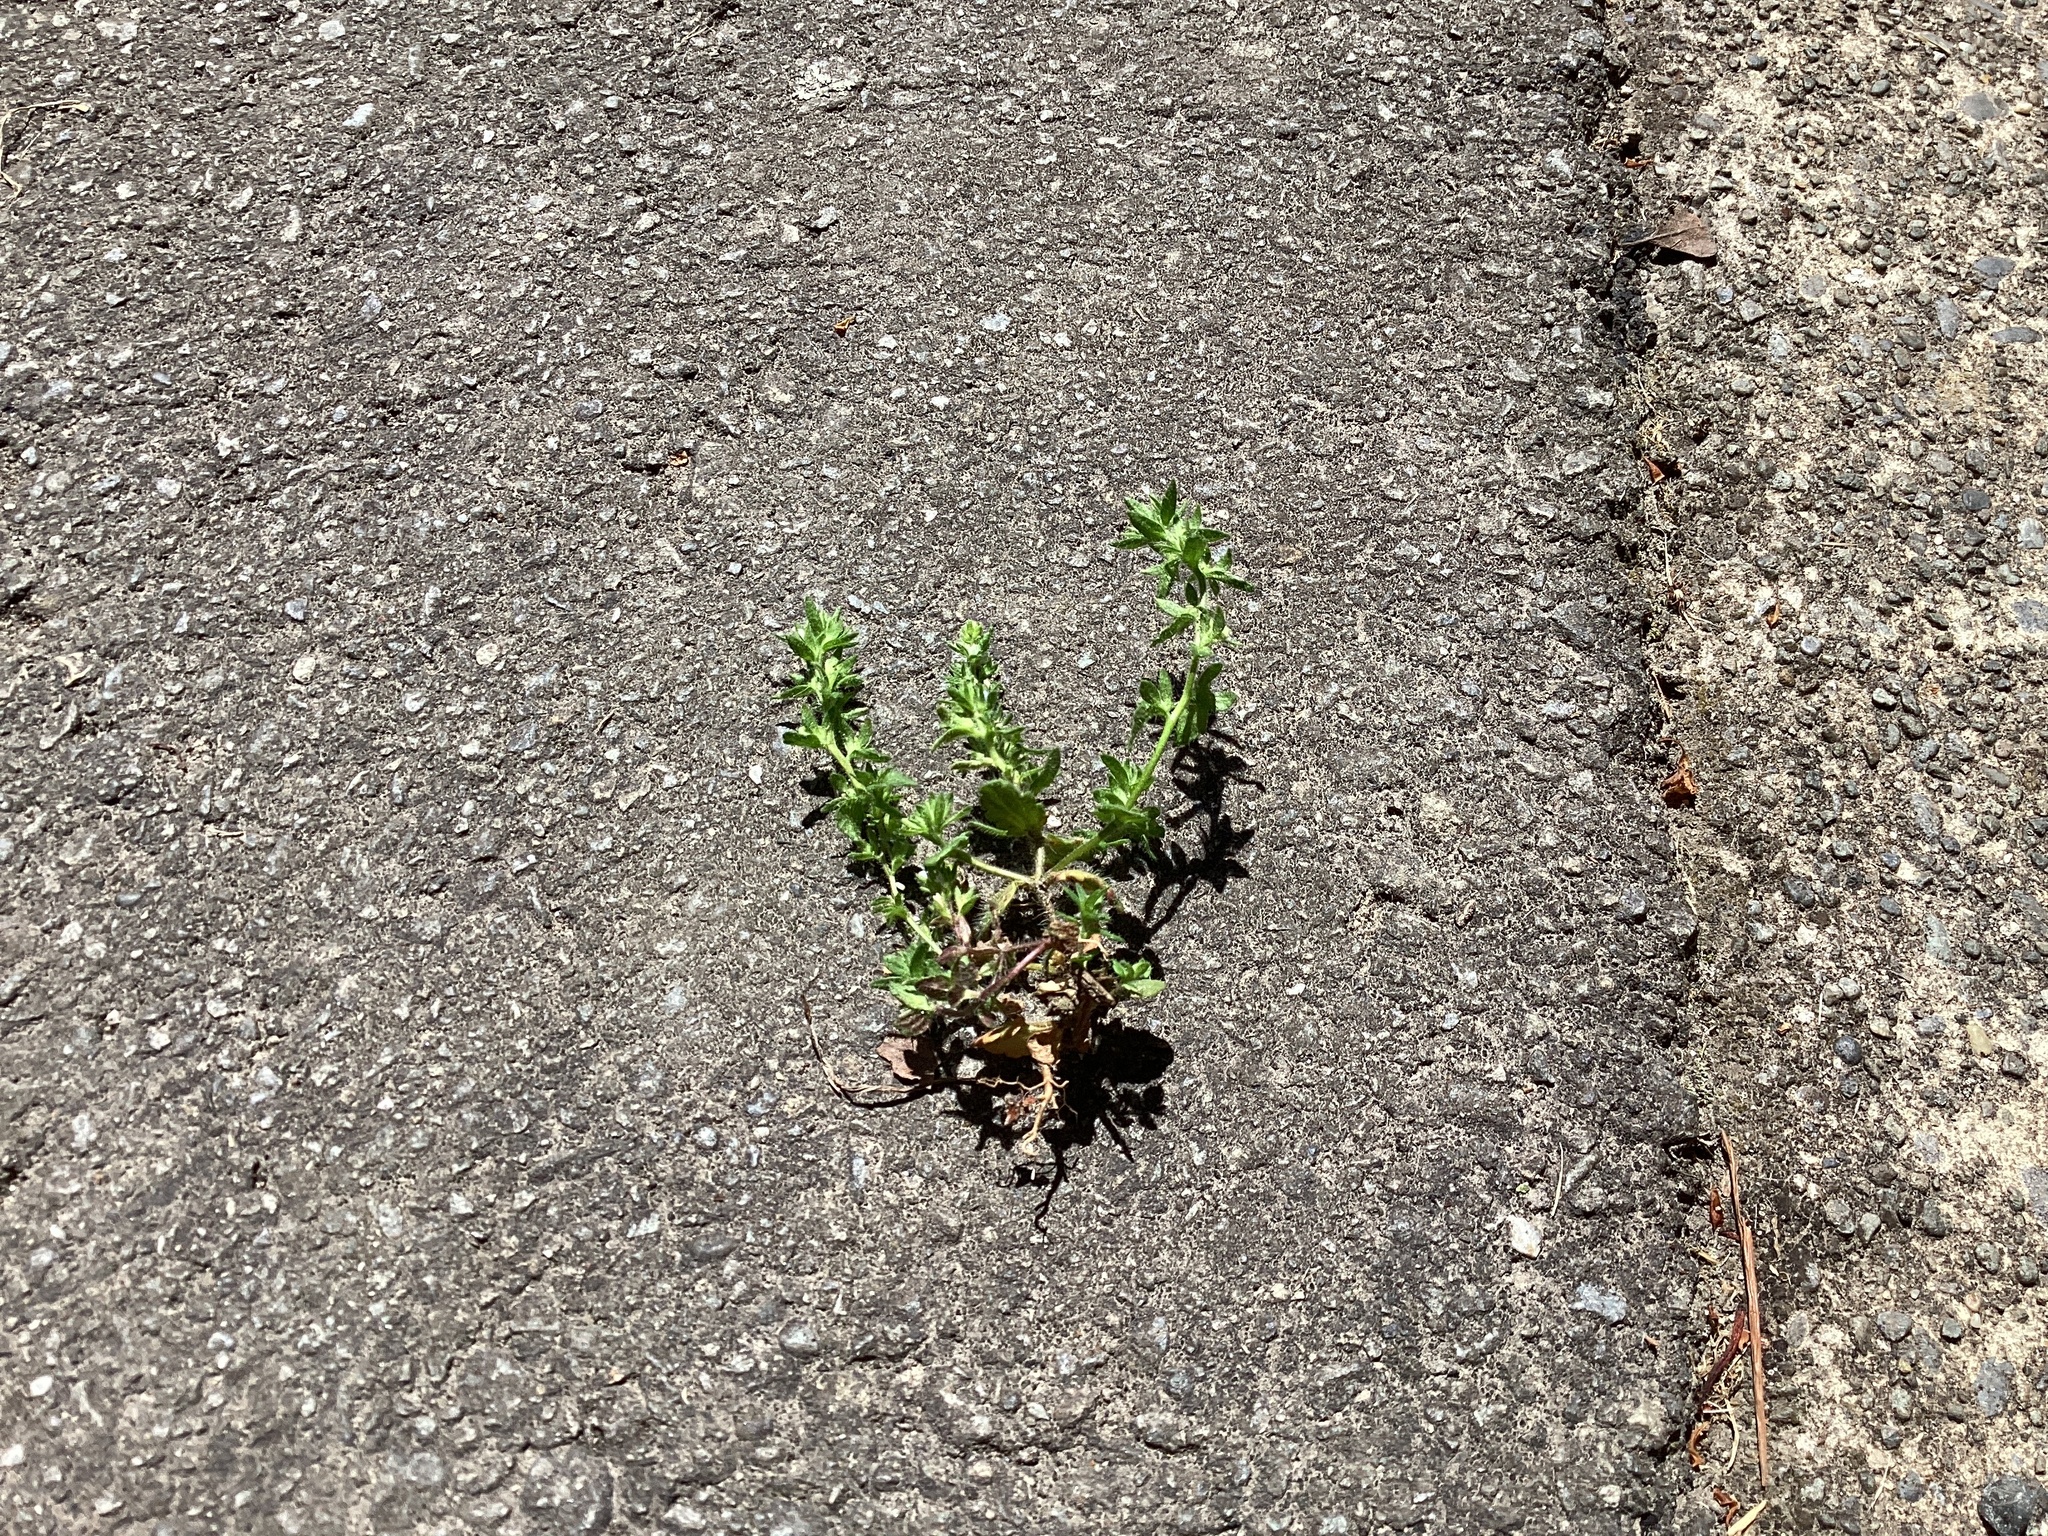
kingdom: Plantae
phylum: Tracheophyta
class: Magnoliopsida
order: Lamiales
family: Plantaginaceae
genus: Veronica
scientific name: Veronica arvensis
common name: Corn speedwell
